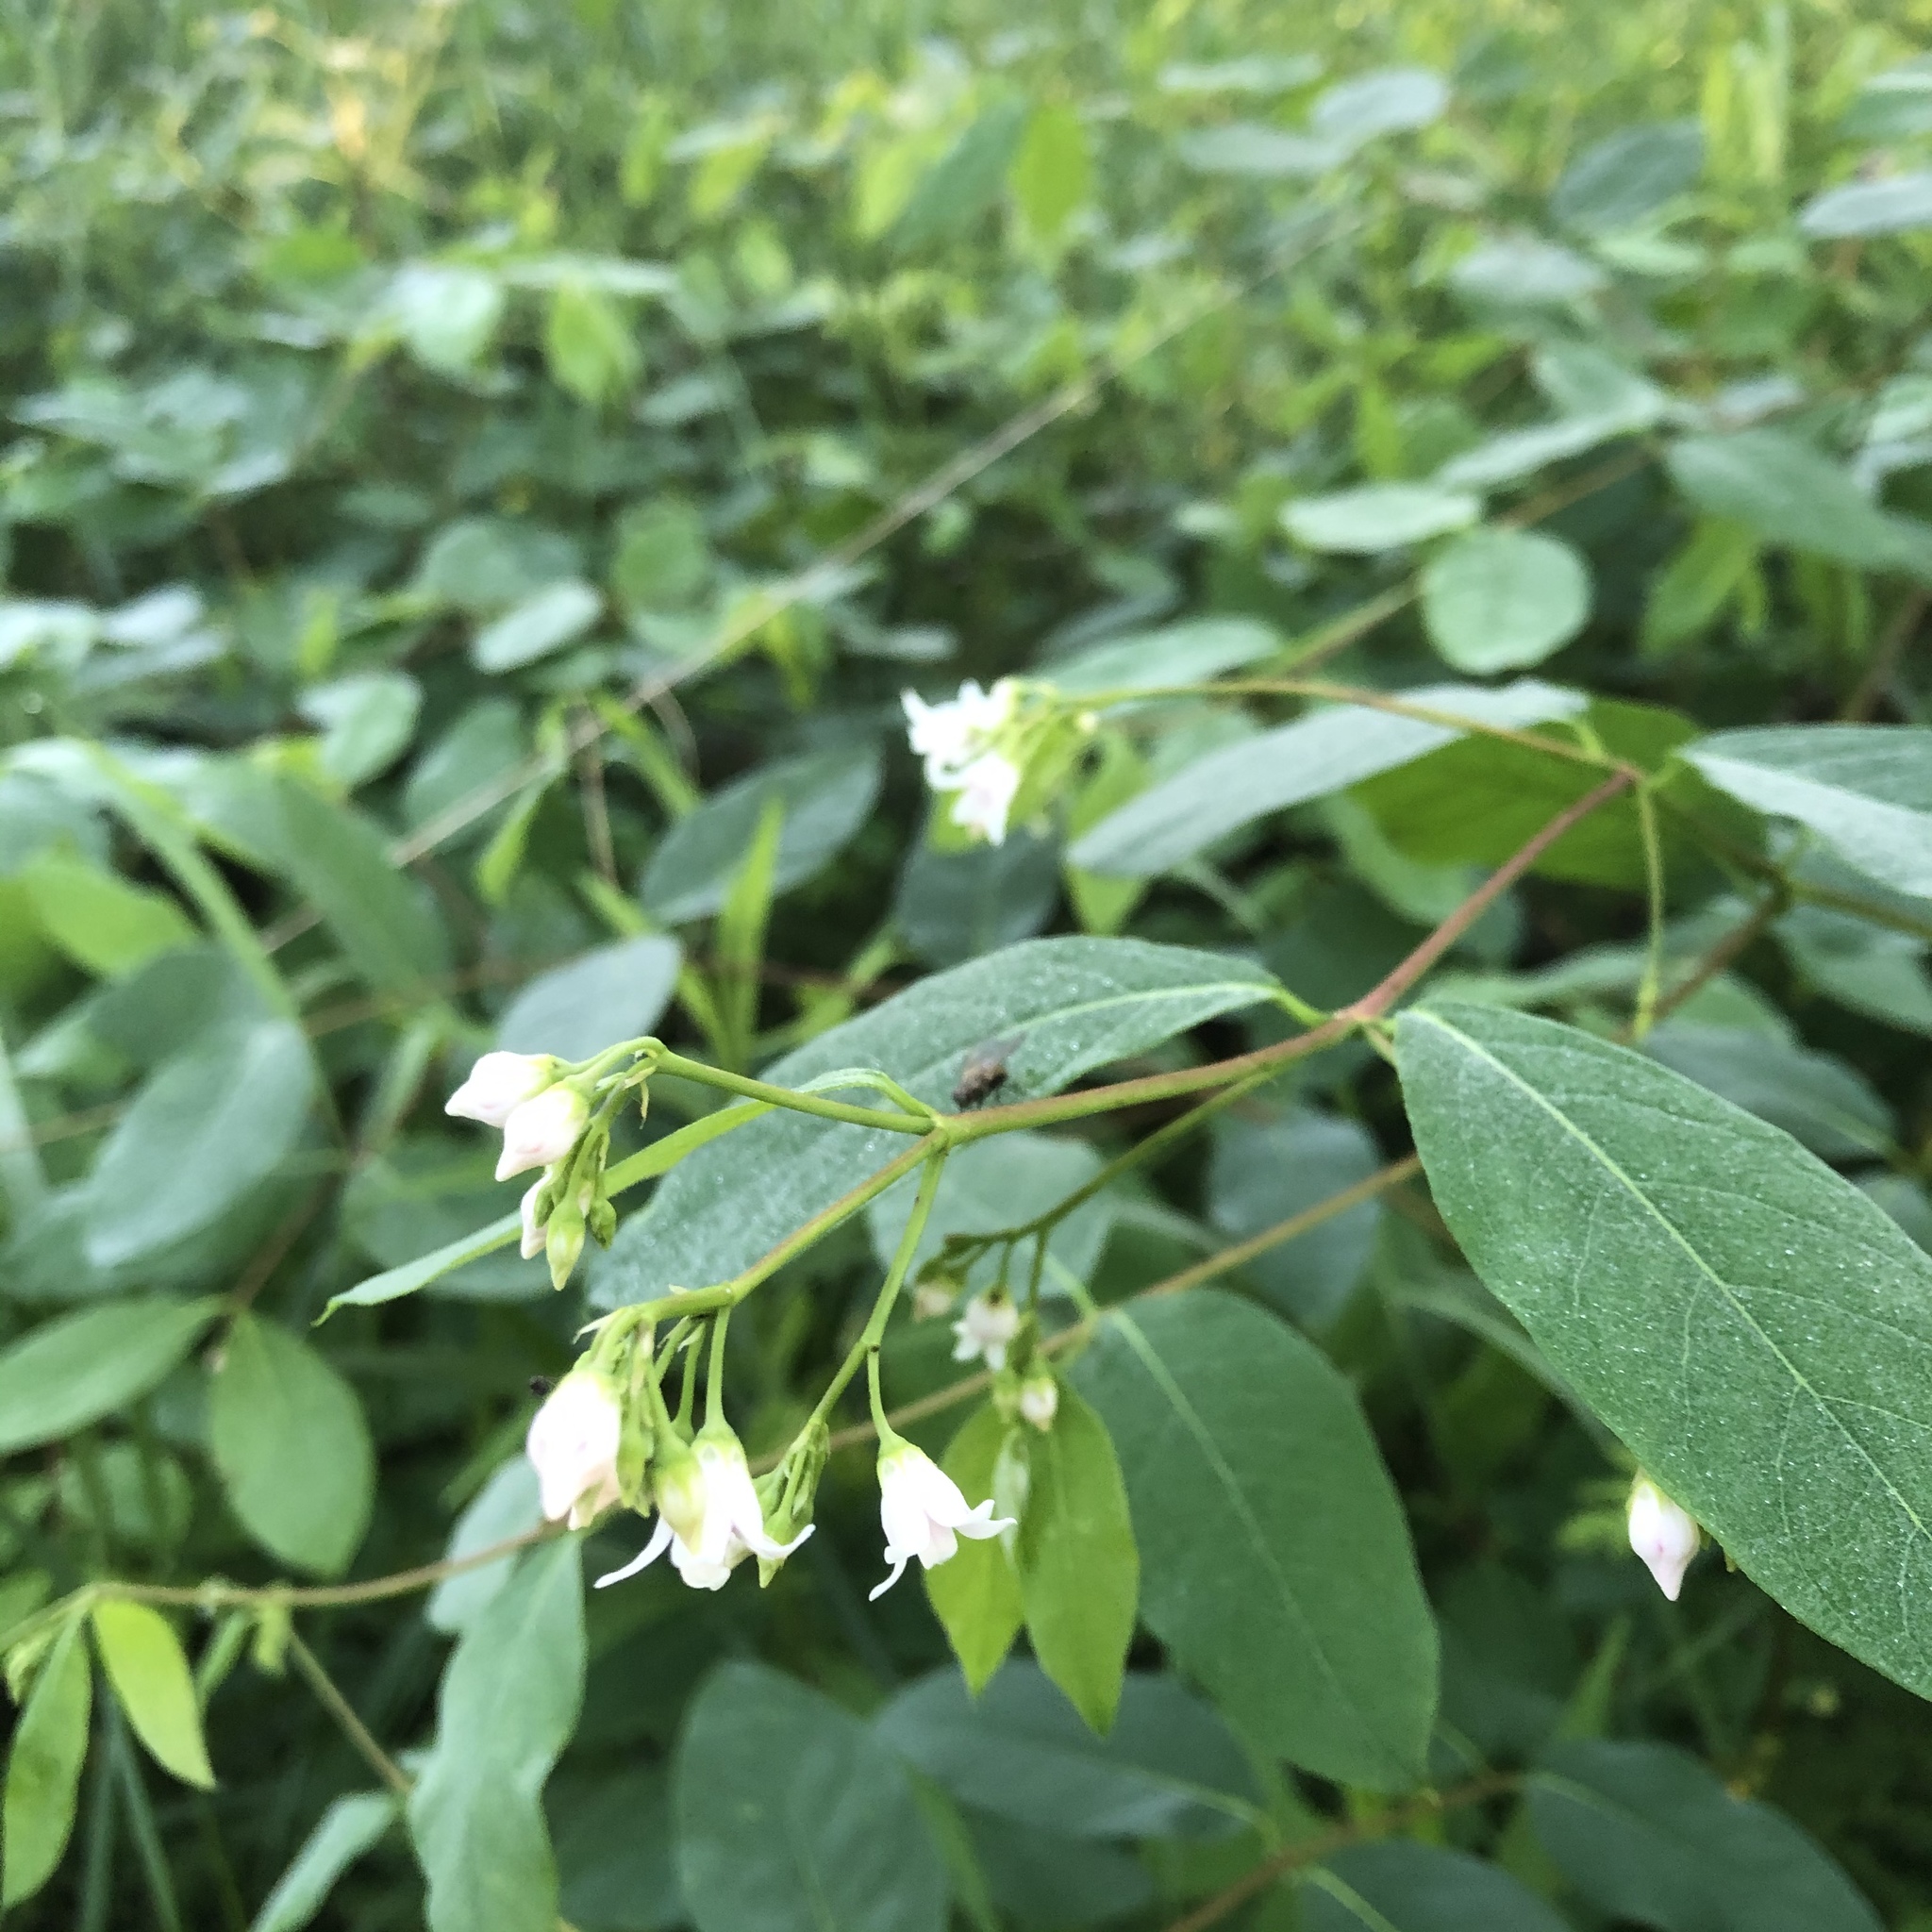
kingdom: Plantae
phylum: Tracheophyta
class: Magnoliopsida
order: Gentianales
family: Apocynaceae
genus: Apocynum
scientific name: Apocynum androsaemifolium
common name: Spreading dogbane
